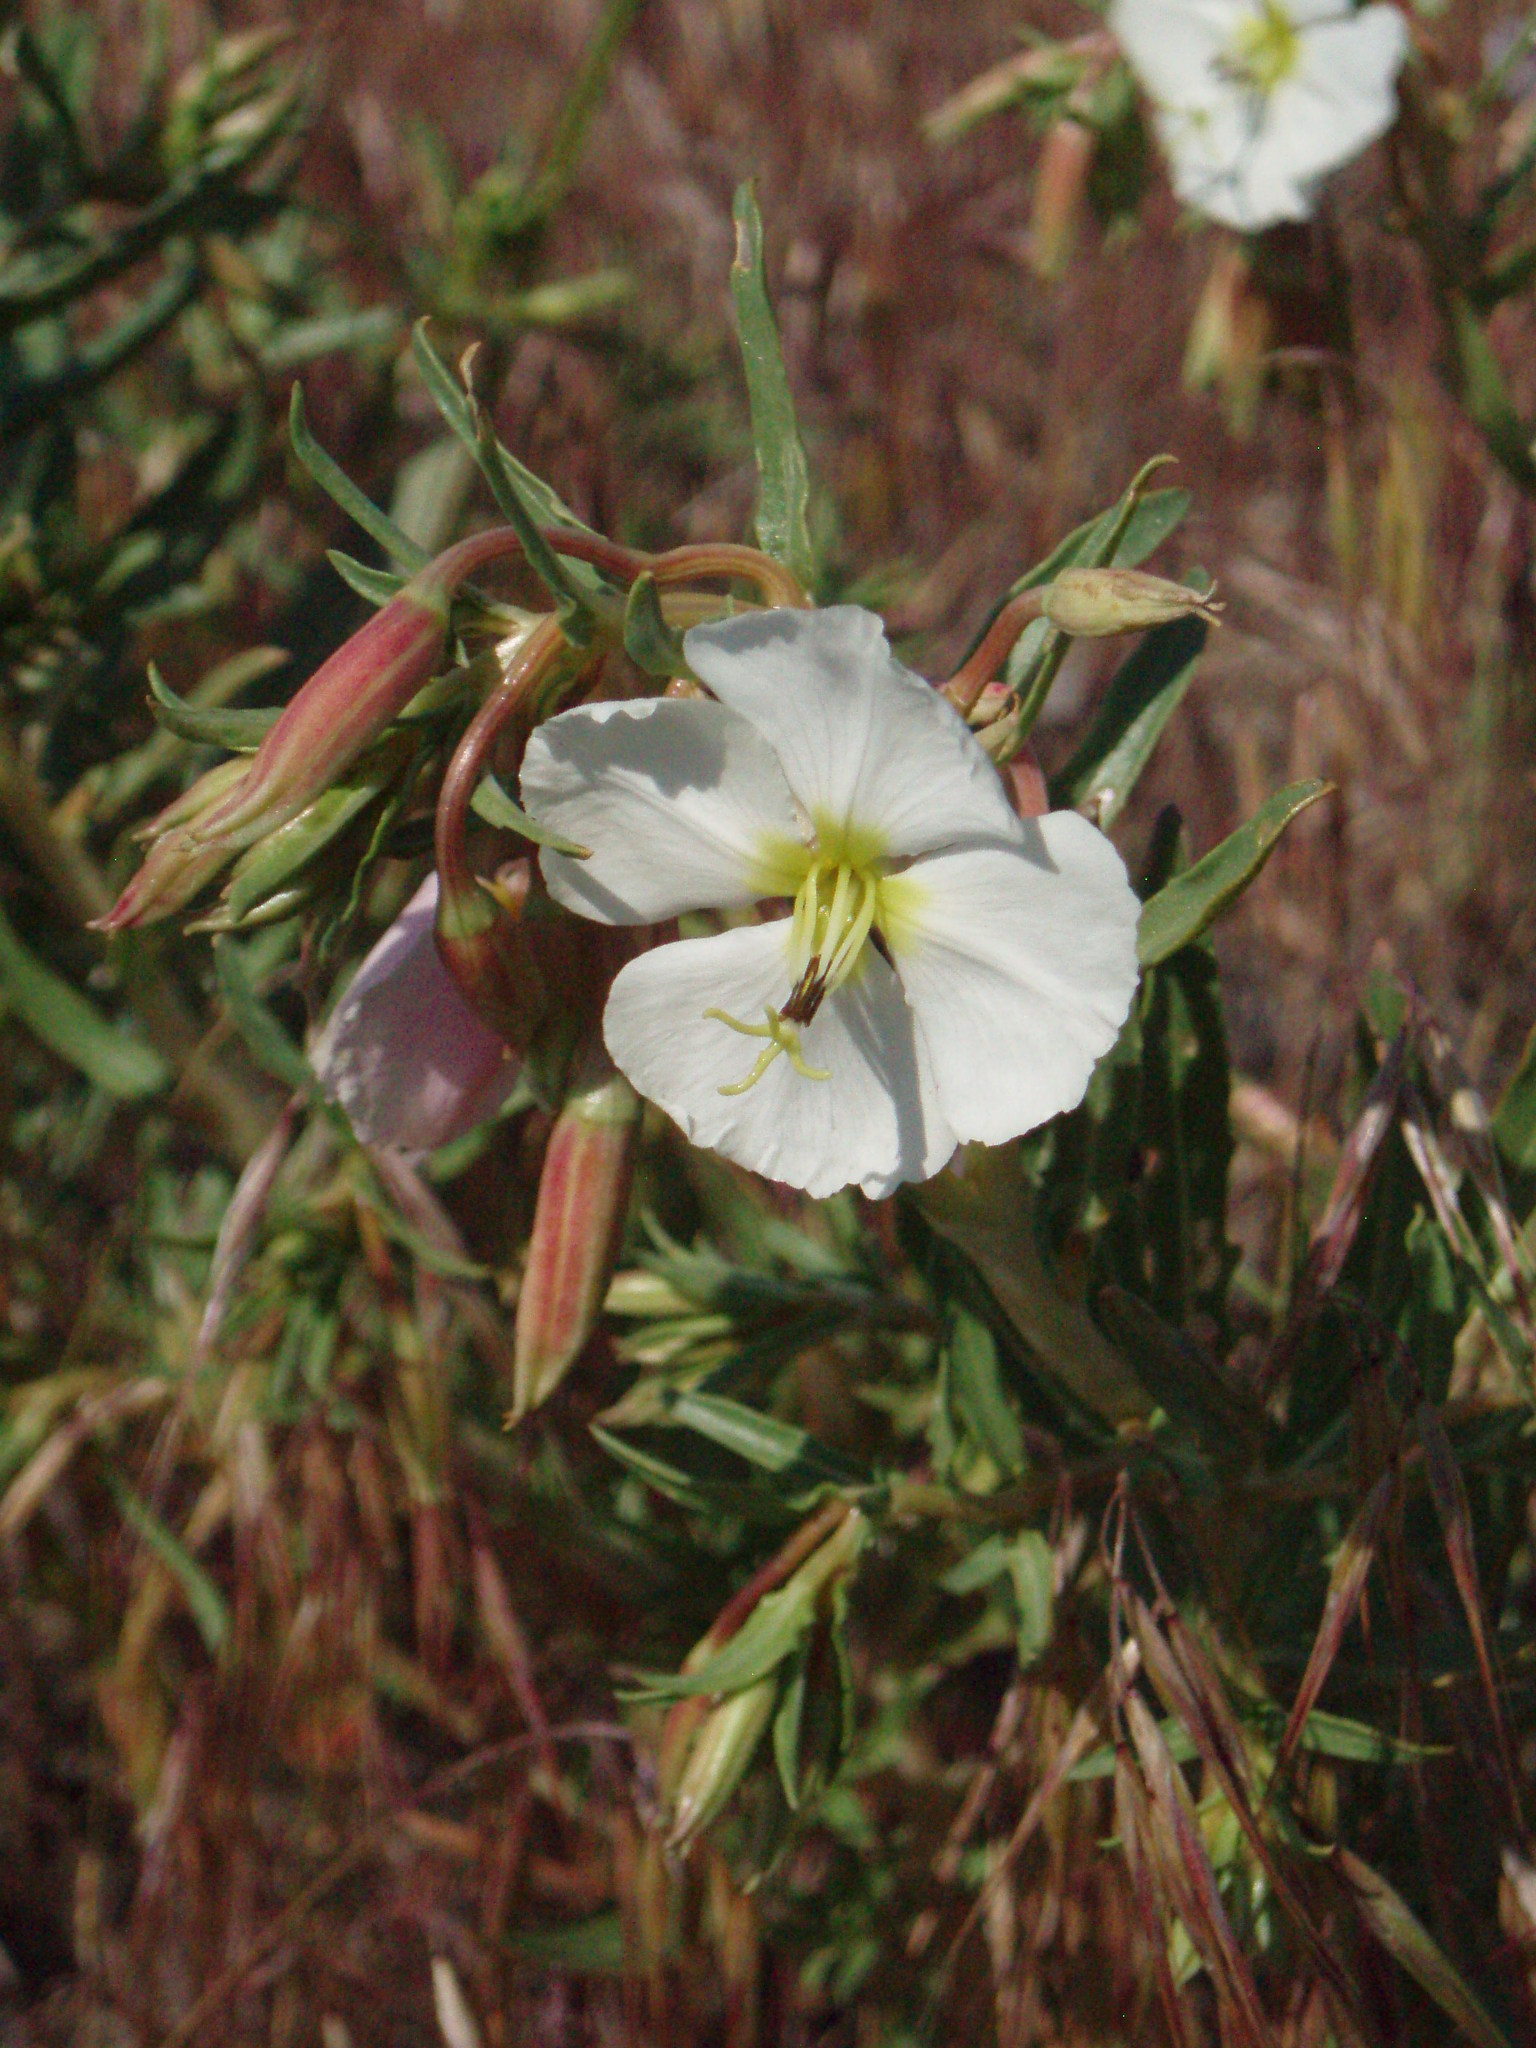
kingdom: Plantae
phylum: Tracheophyta
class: Magnoliopsida
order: Myrtales
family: Onagraceae
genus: Oenothera
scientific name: Oenothera pallida
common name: Pale evening-primrose
